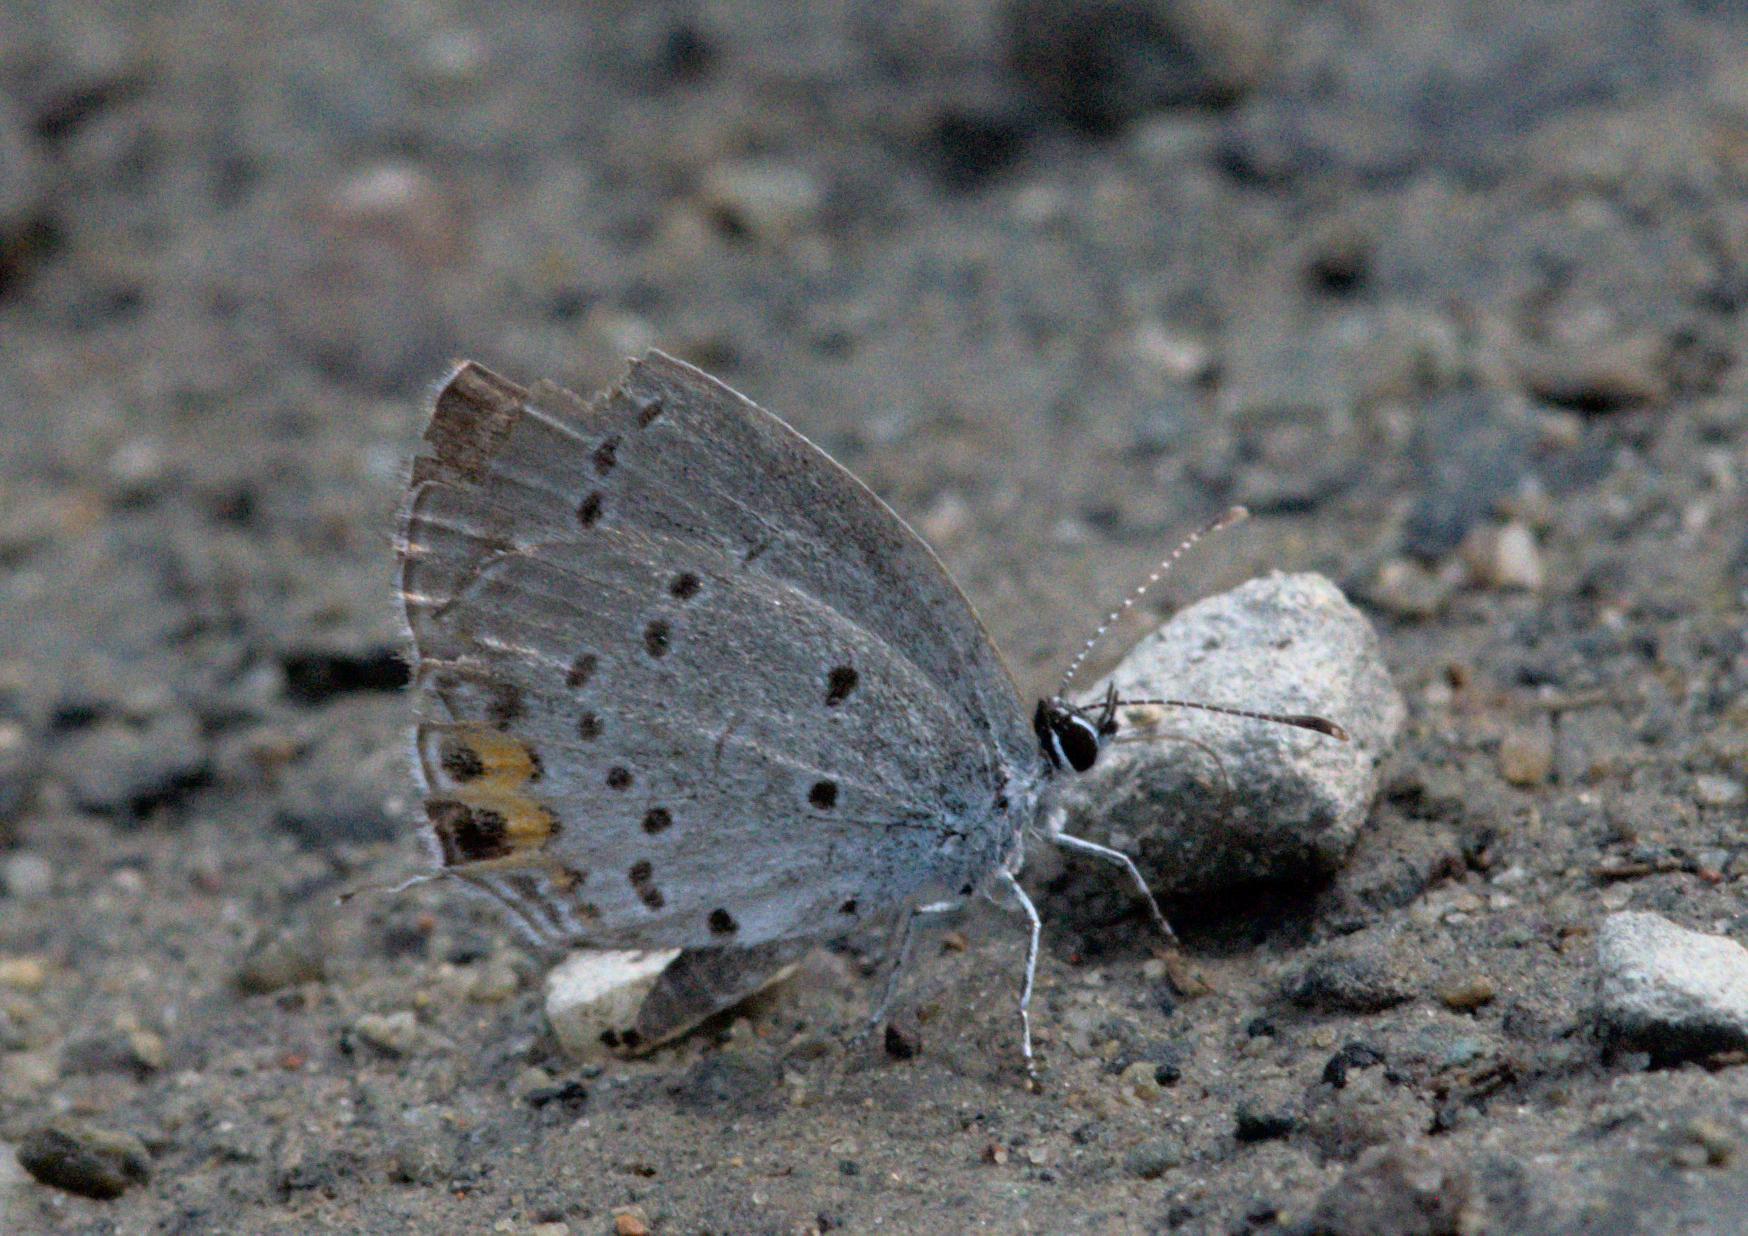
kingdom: Animalia
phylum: Arthropoda
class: Insecta
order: Lepidoptera
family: Lycaenidae
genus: Elkalyce
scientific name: Elkalyce argiades
